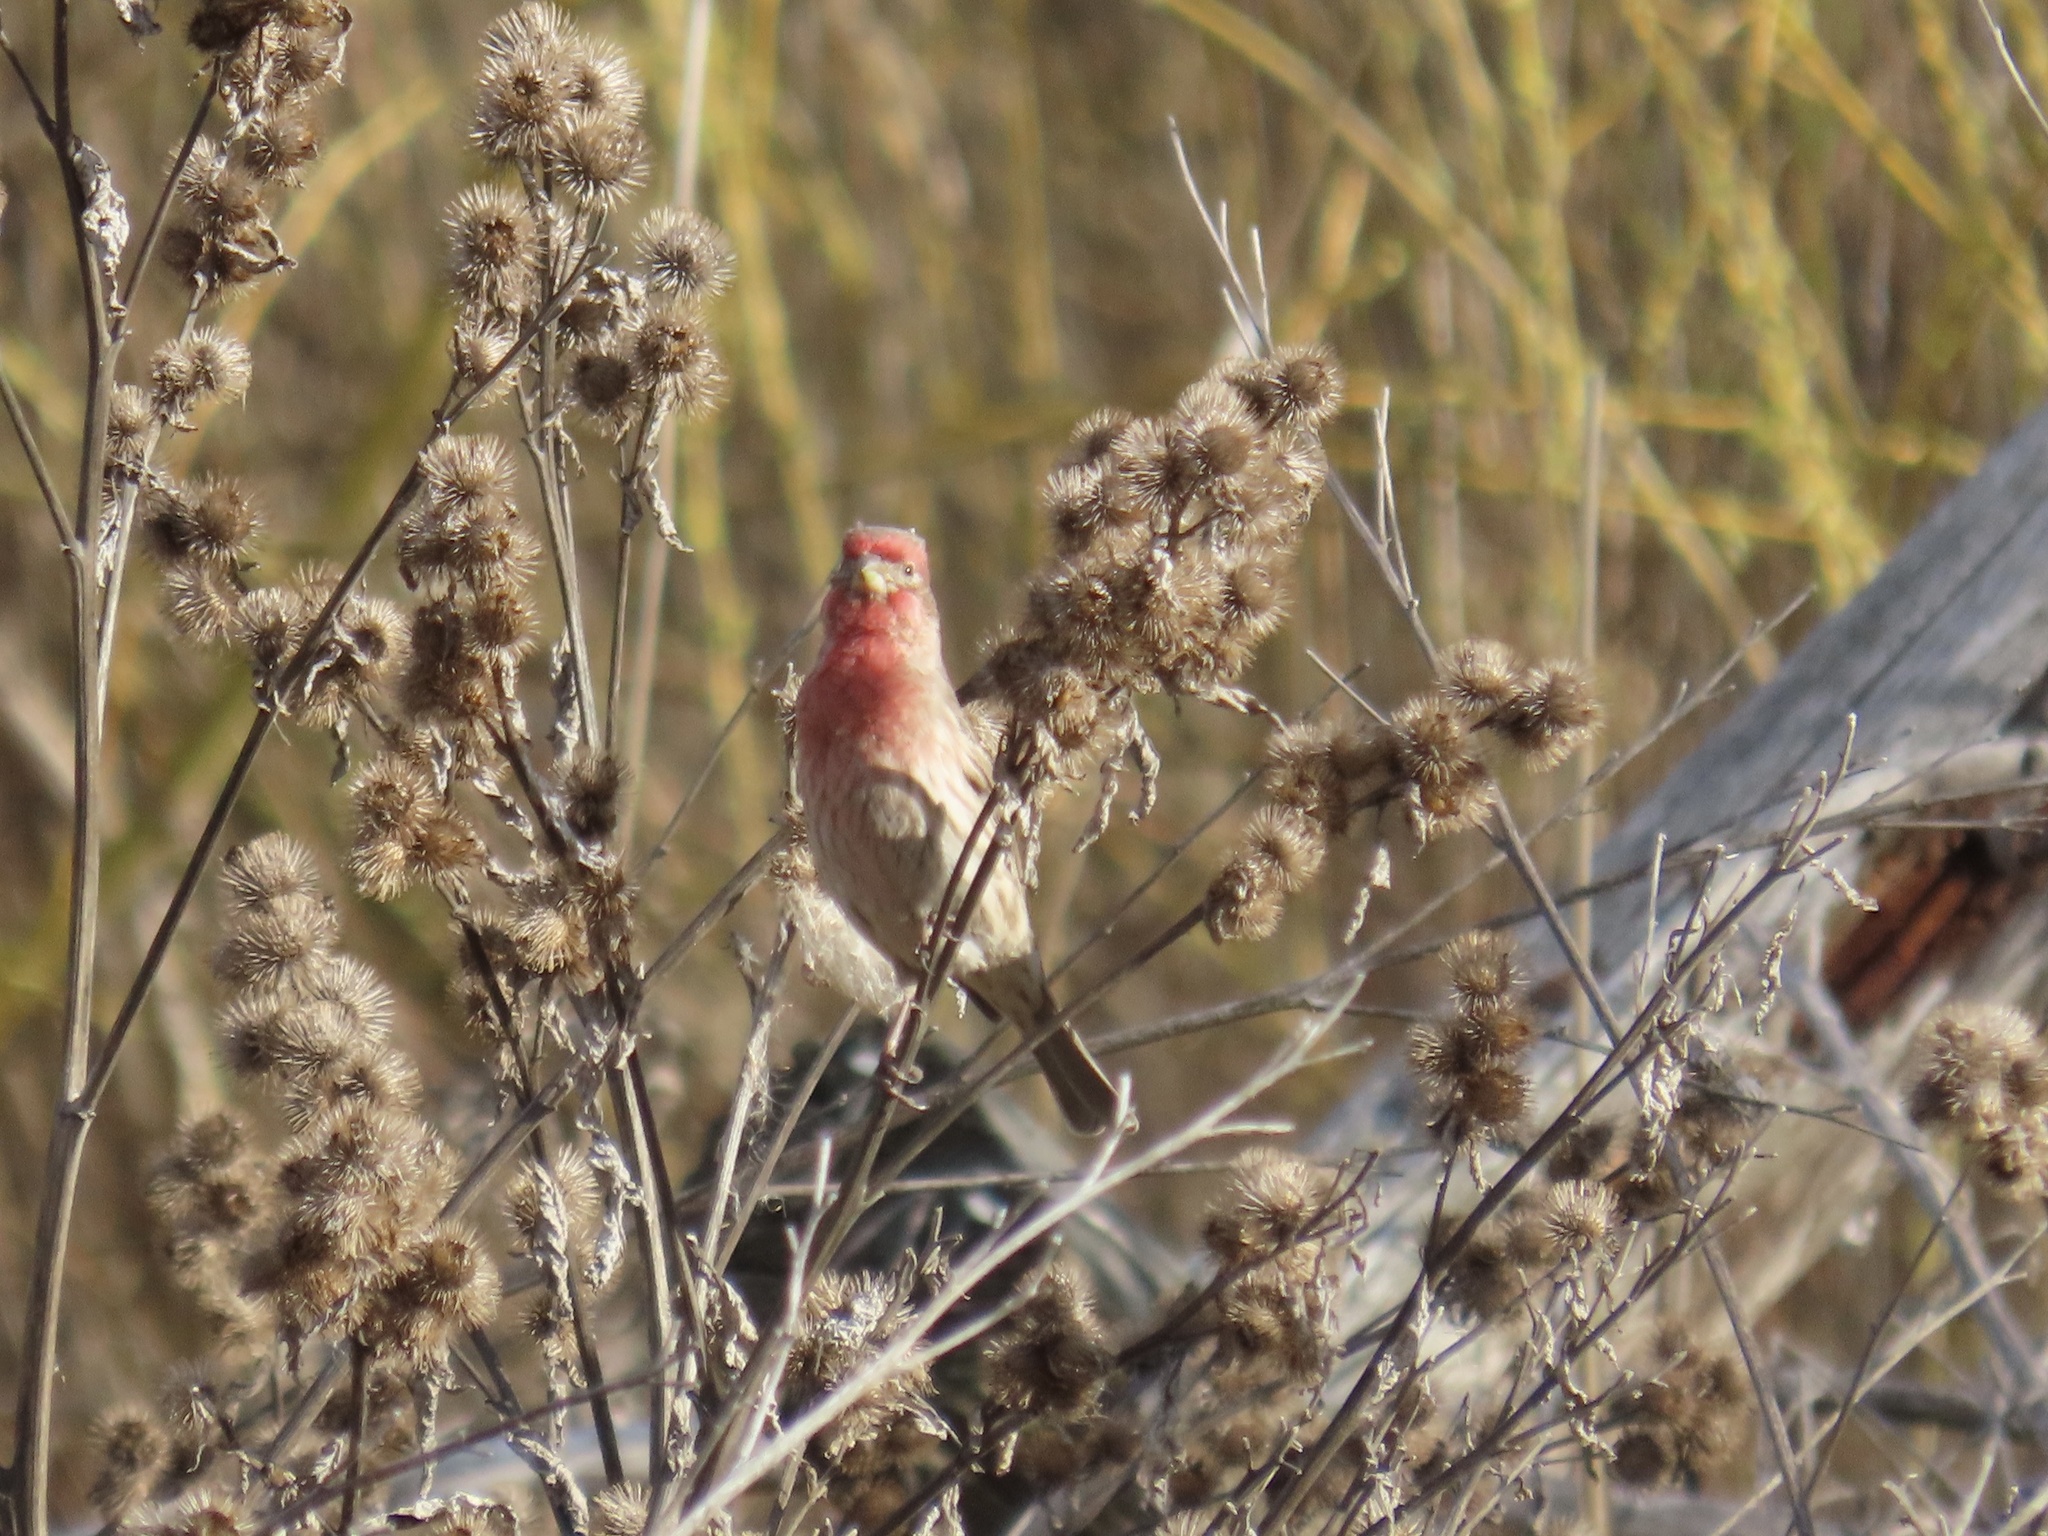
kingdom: Animalia
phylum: Chordata
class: Aves
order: Passeriformes
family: Fringillidae
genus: Haemorhous
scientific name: Haemorhous mexicanus
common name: House finch
